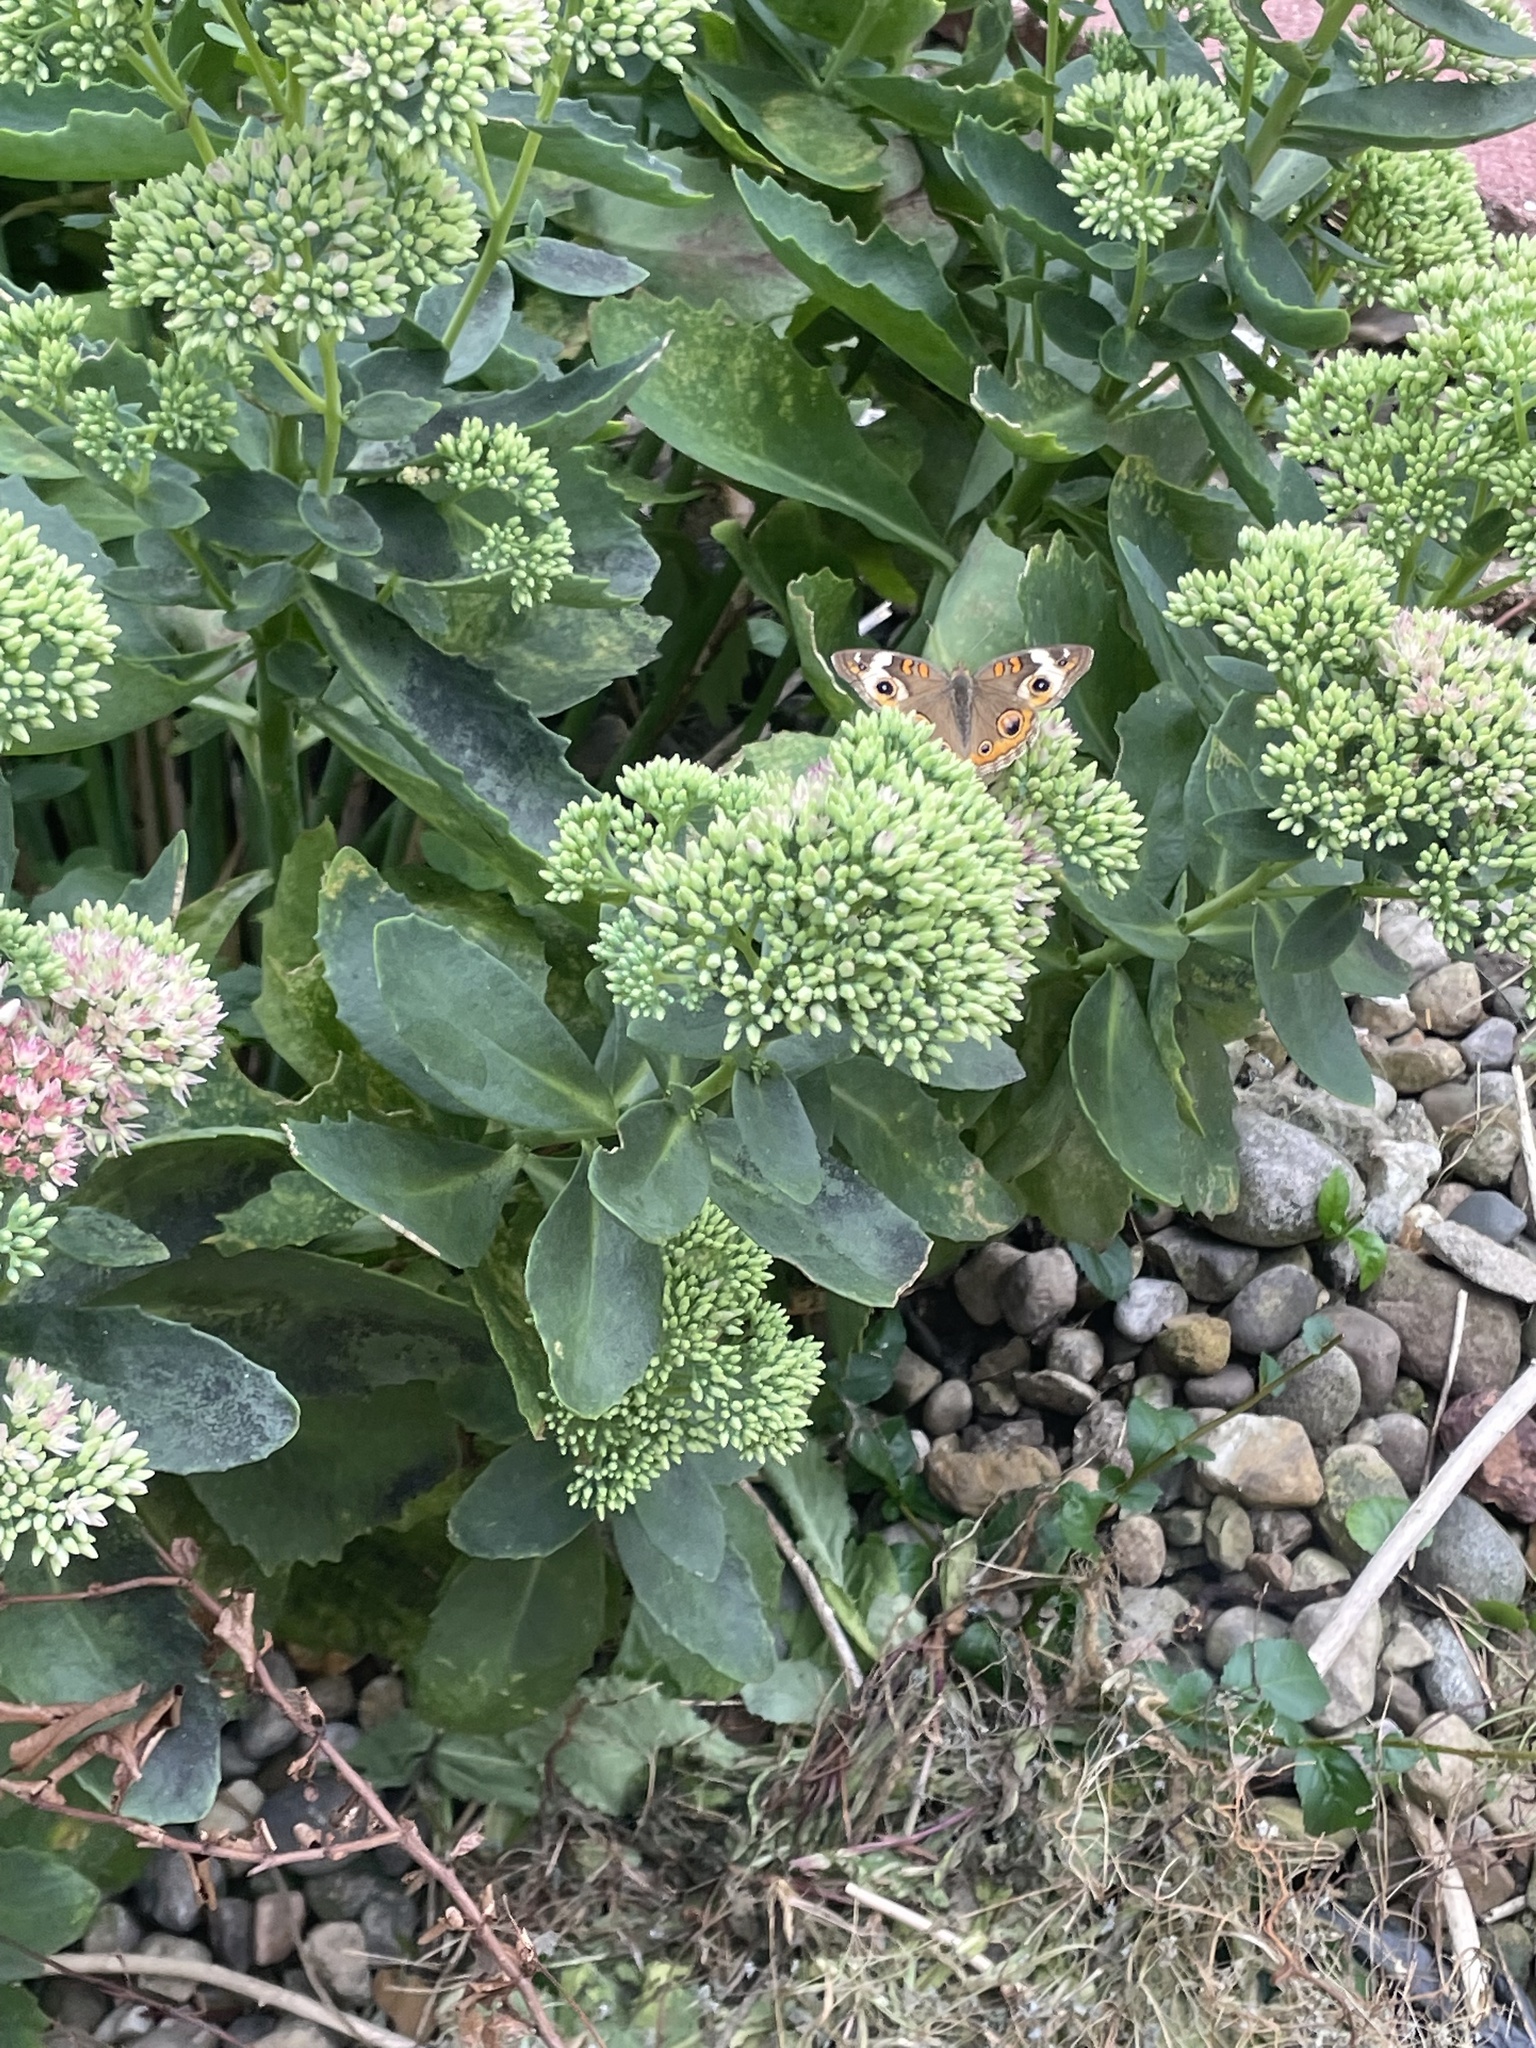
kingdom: Animalia
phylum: Arthropoda
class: Insecta
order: Lepidoptera
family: Nymphalidae
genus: Junonia
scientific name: Junonia coenia
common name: Common buckeye
